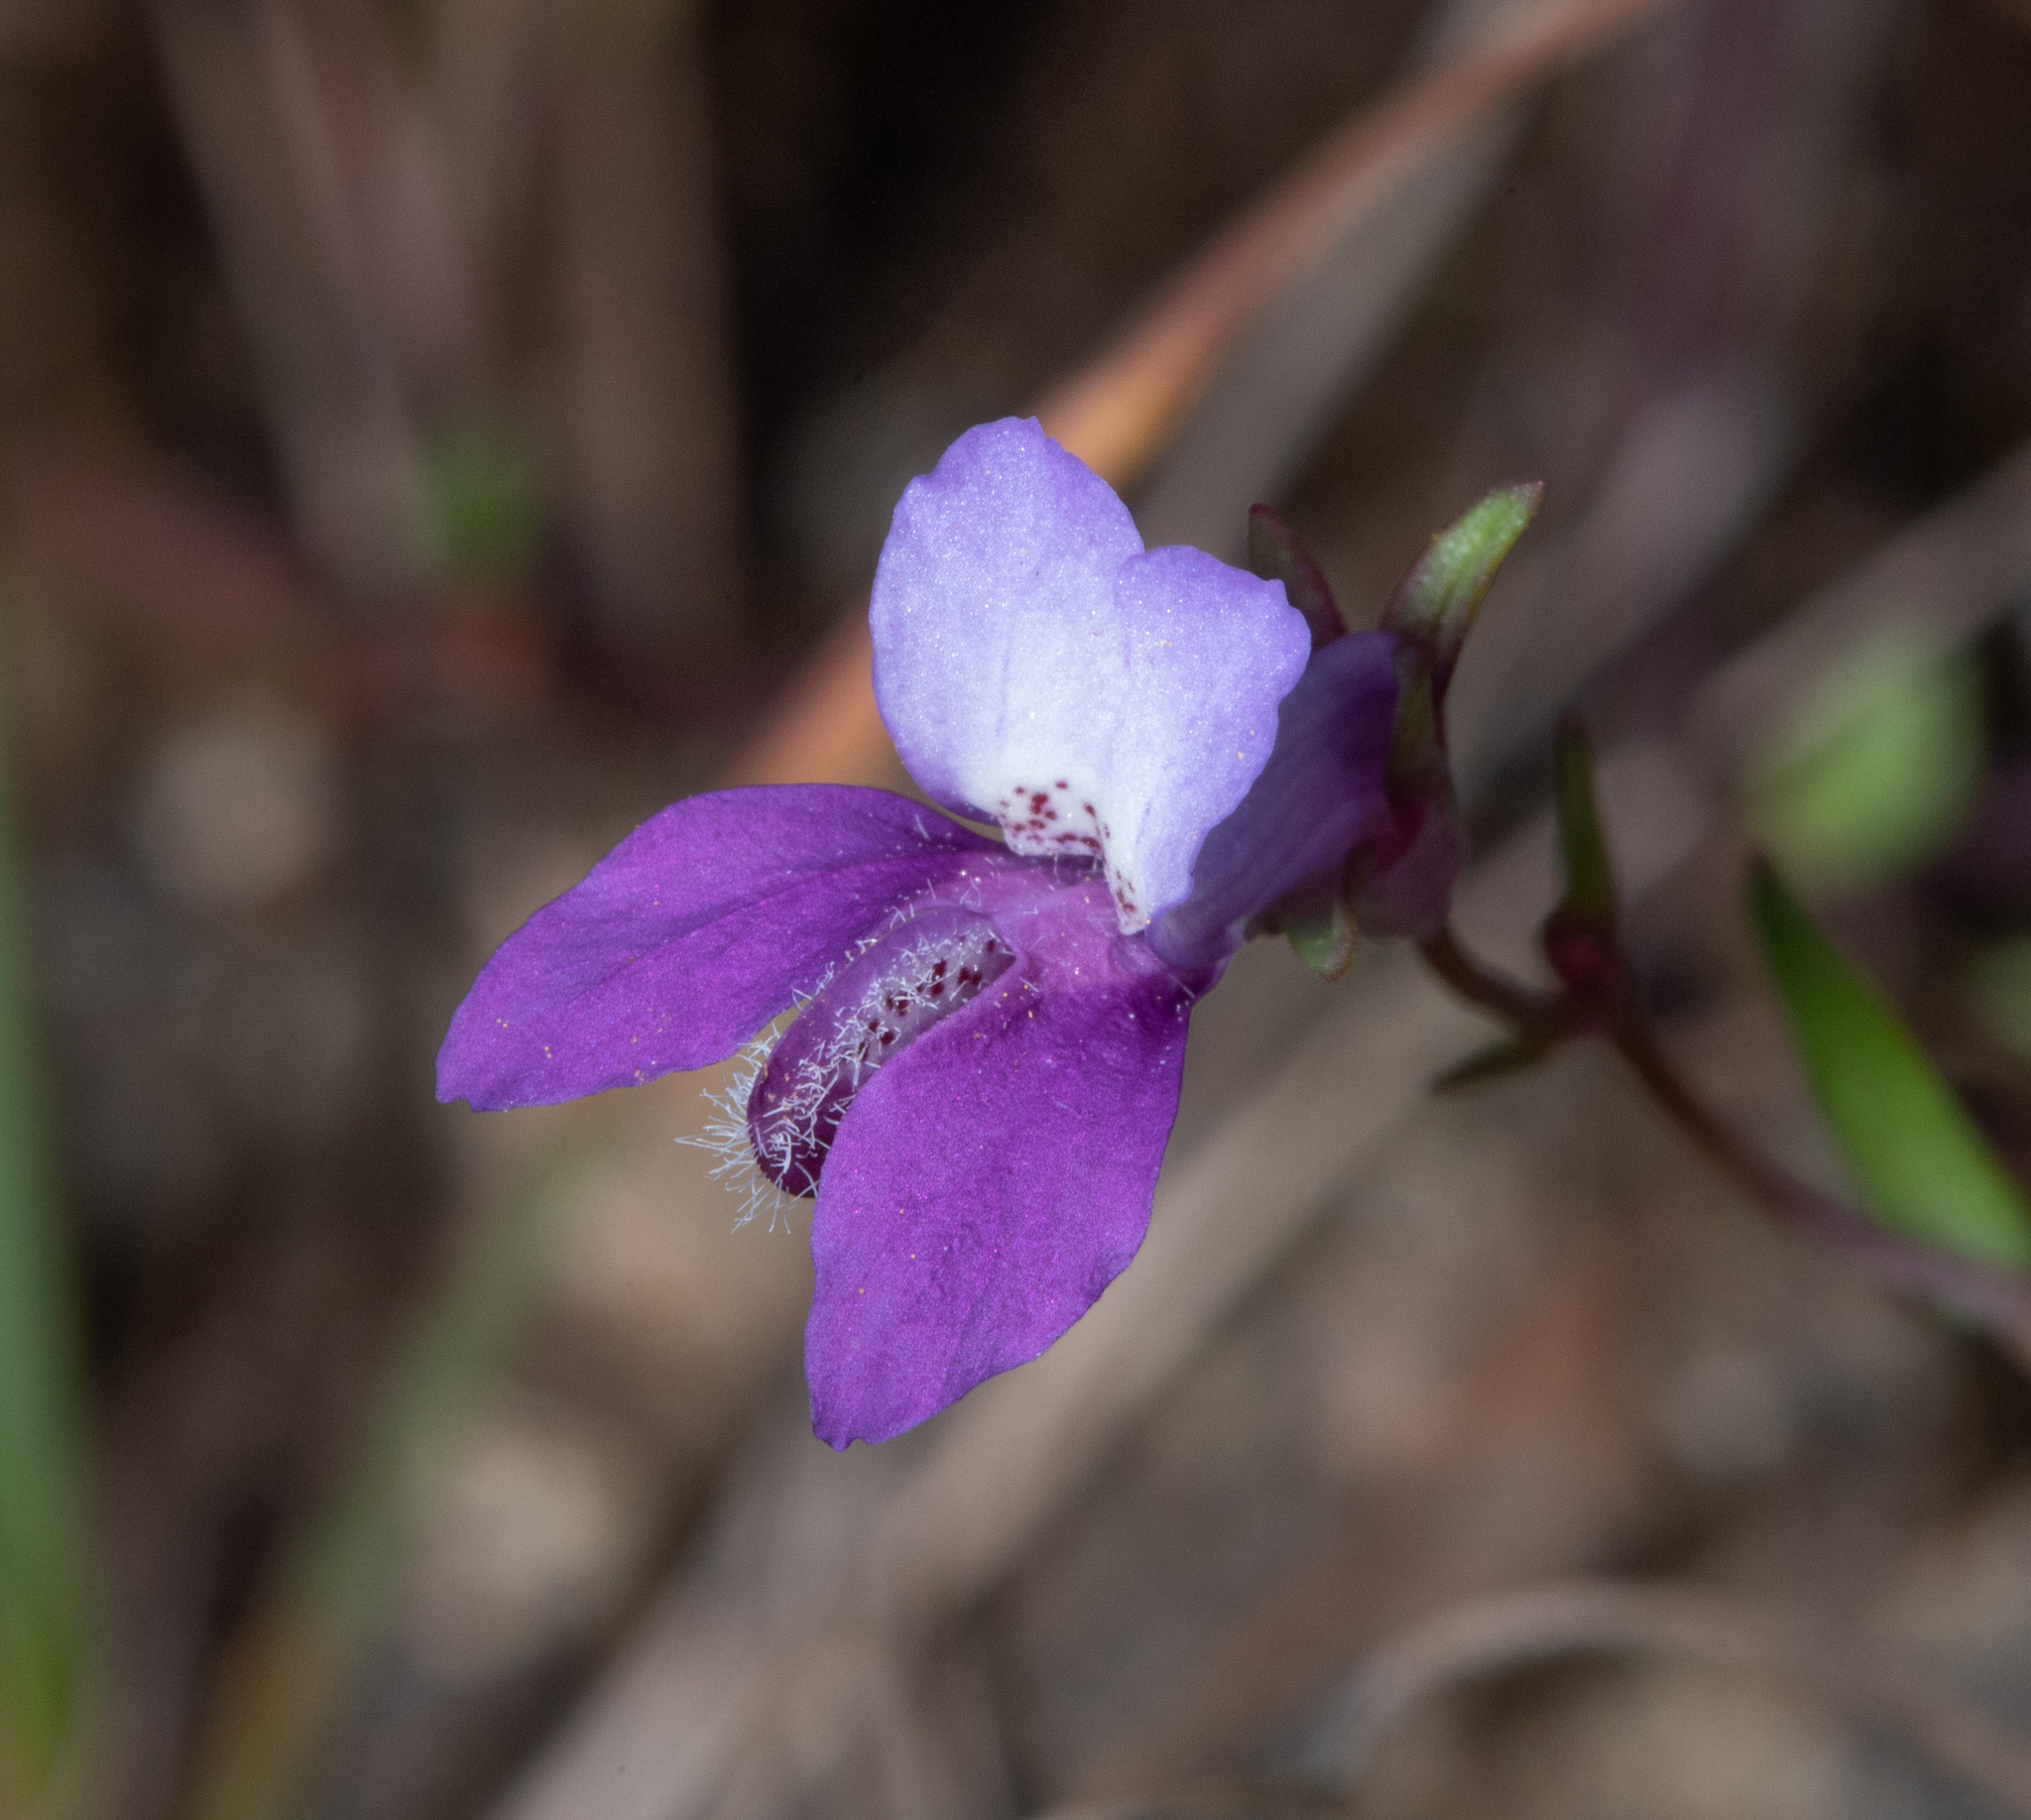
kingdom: Plantae
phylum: Tracheophyta
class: Magnoliopsida
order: Lamiales
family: Plantaginaceae
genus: Collinsia
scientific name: Collinsia sparsiflora
